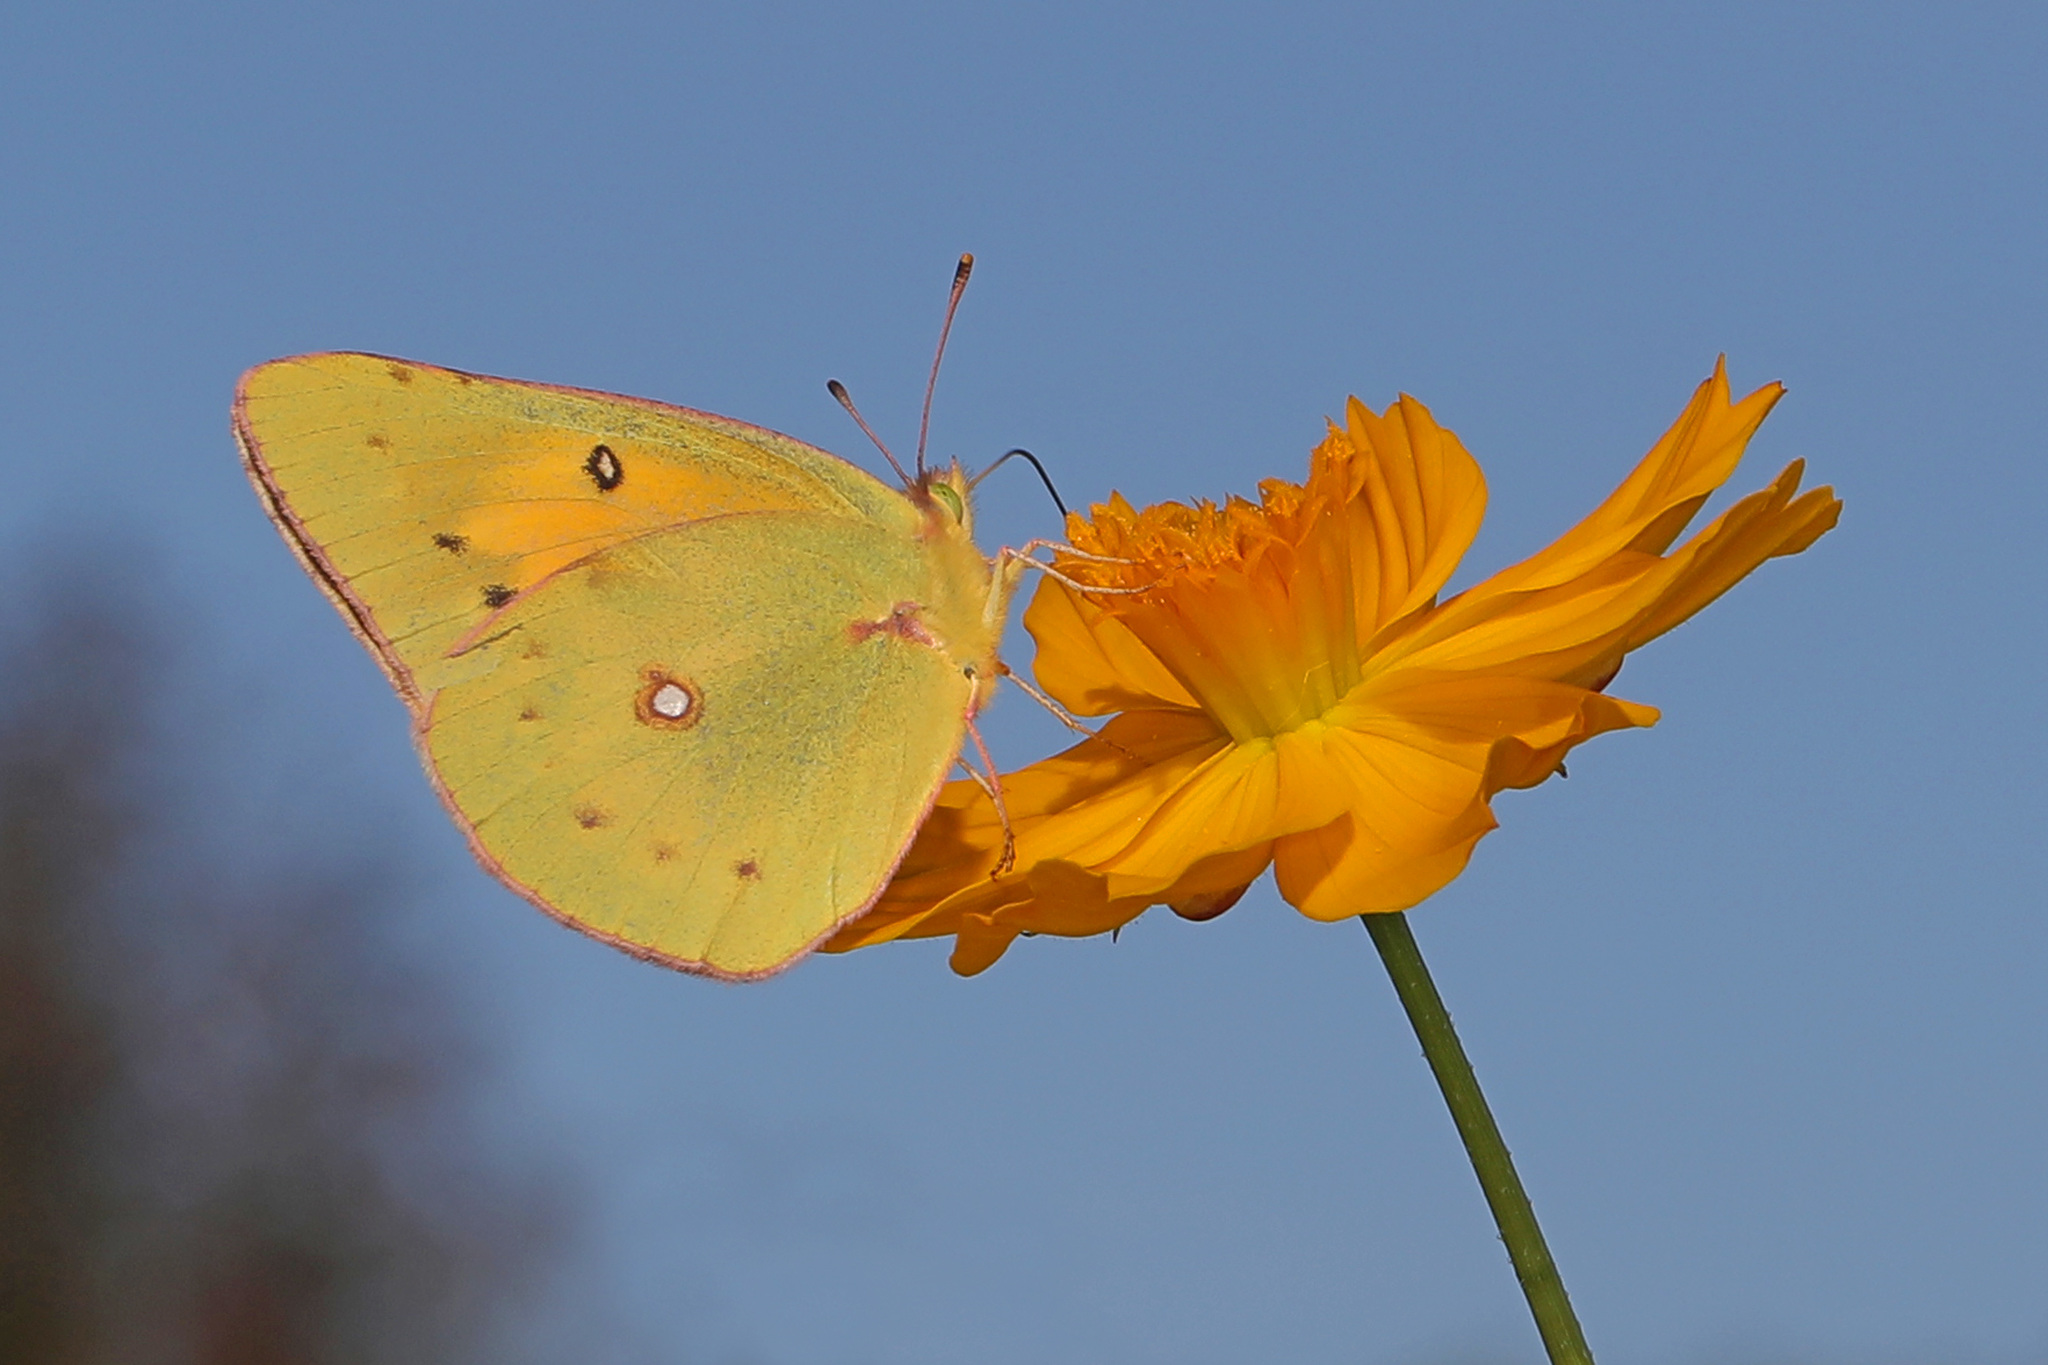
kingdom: Animalia
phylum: Arthropoda
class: Insecta
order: Lepidoptera
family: Pieridae
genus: Colias
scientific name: Colias eurytheme
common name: Alfalfa butterfly
